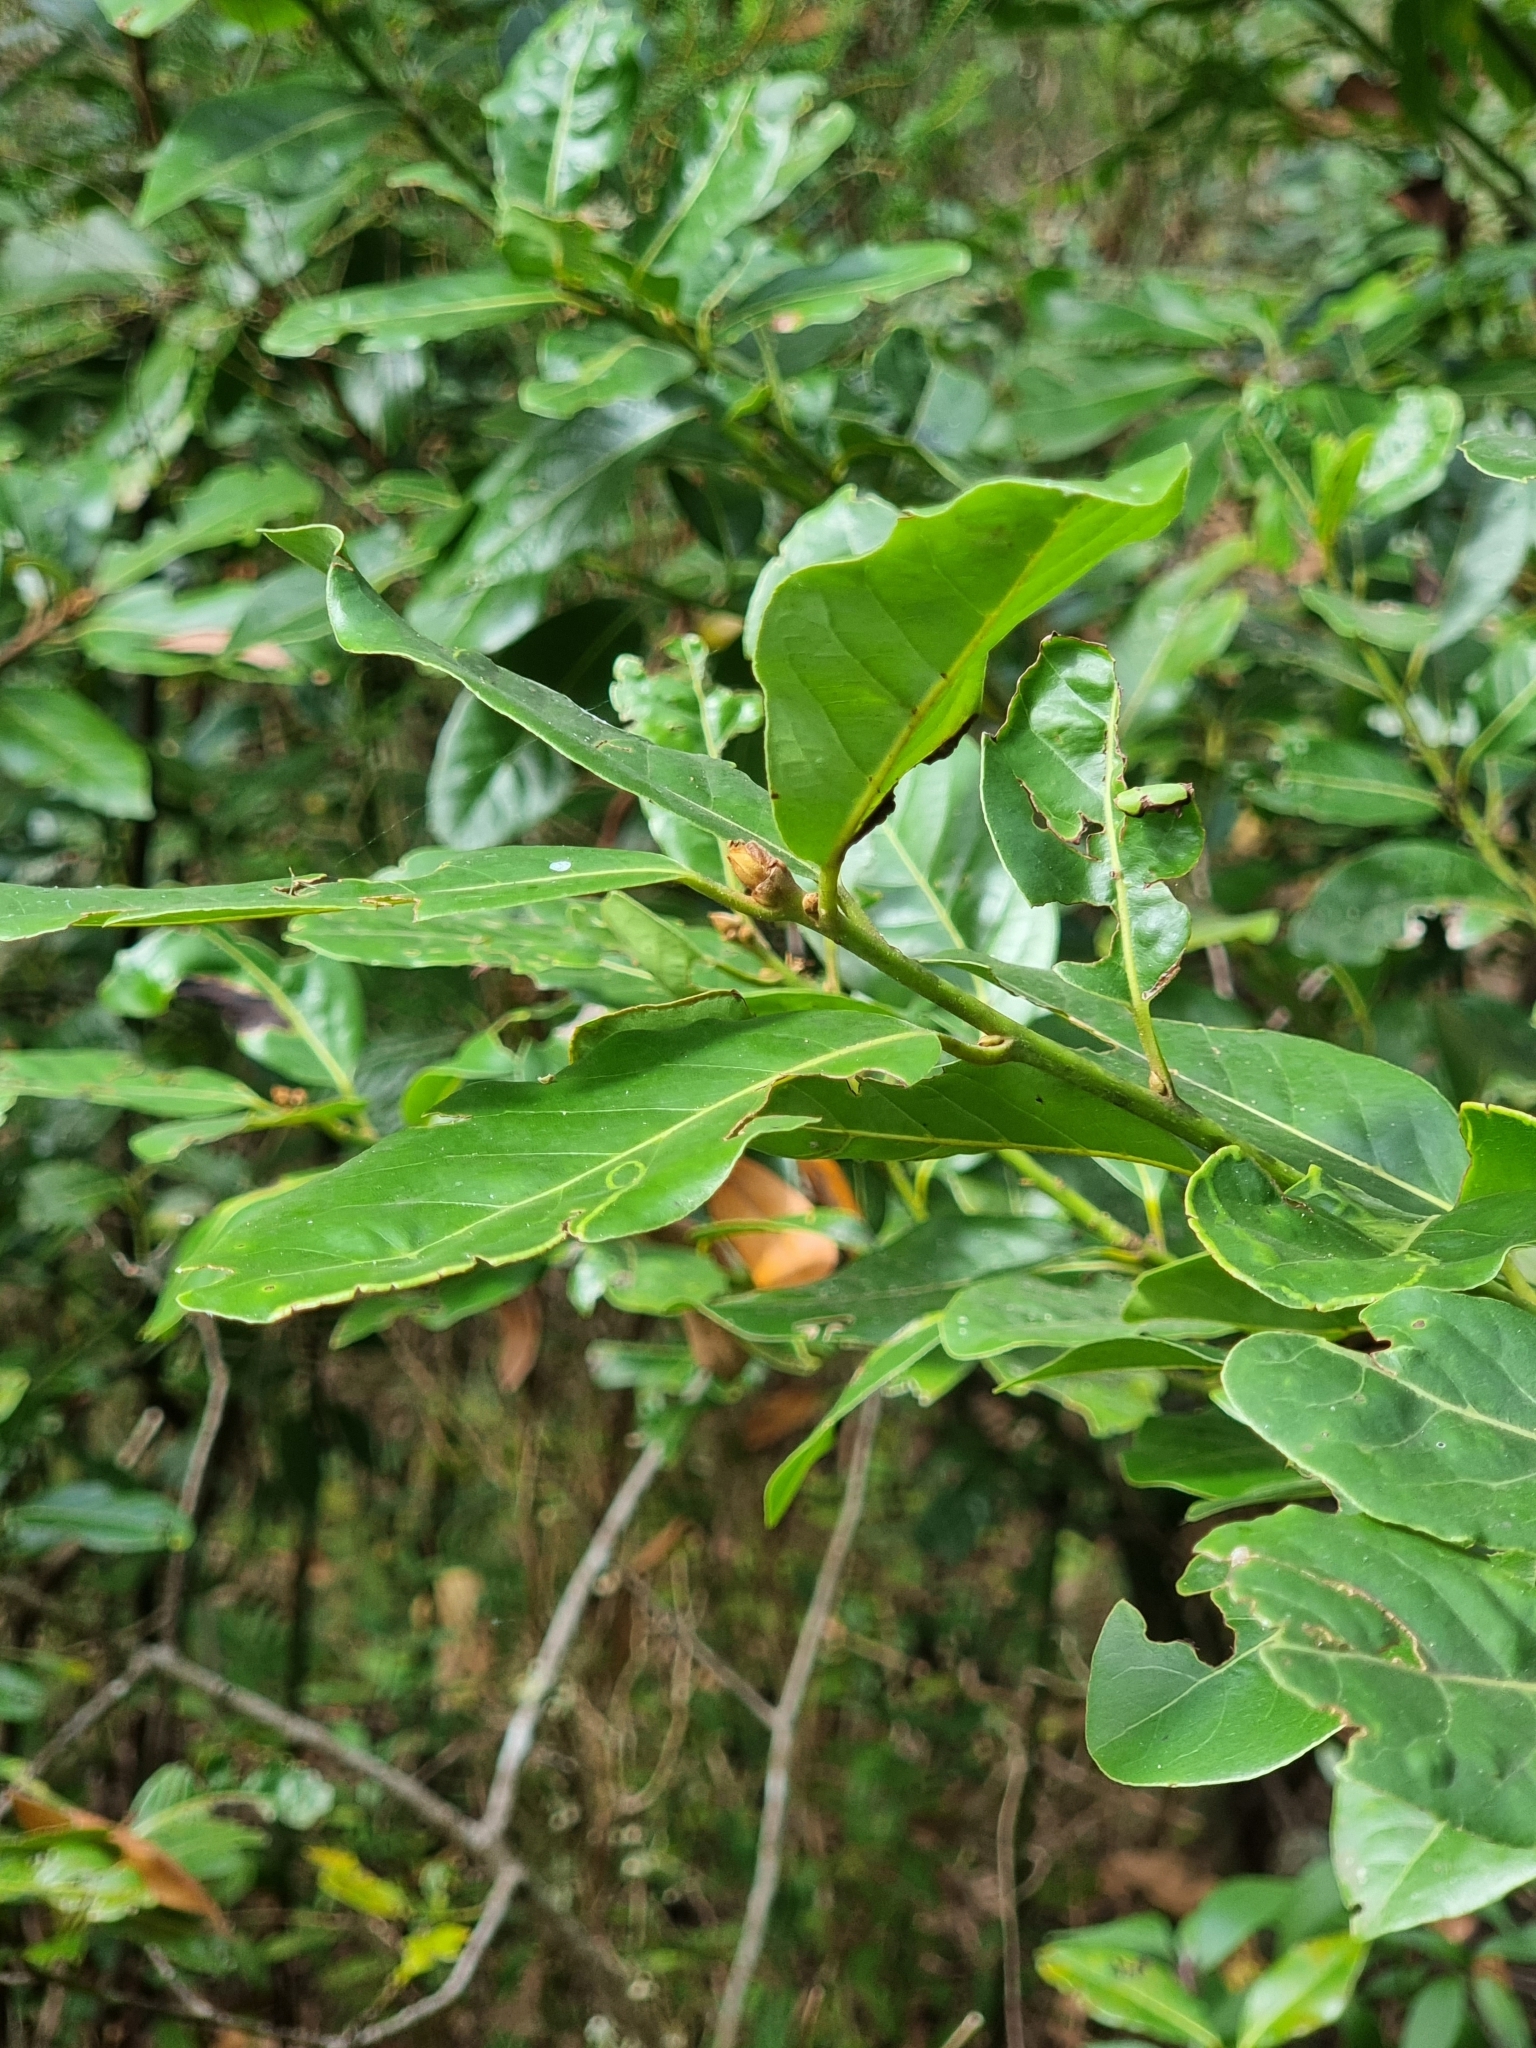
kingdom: Plantae
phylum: Tracheophyta
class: Magnoliopsida
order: Laurales
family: Lauraceae
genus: Laurus
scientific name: Laurus novocanariensis
